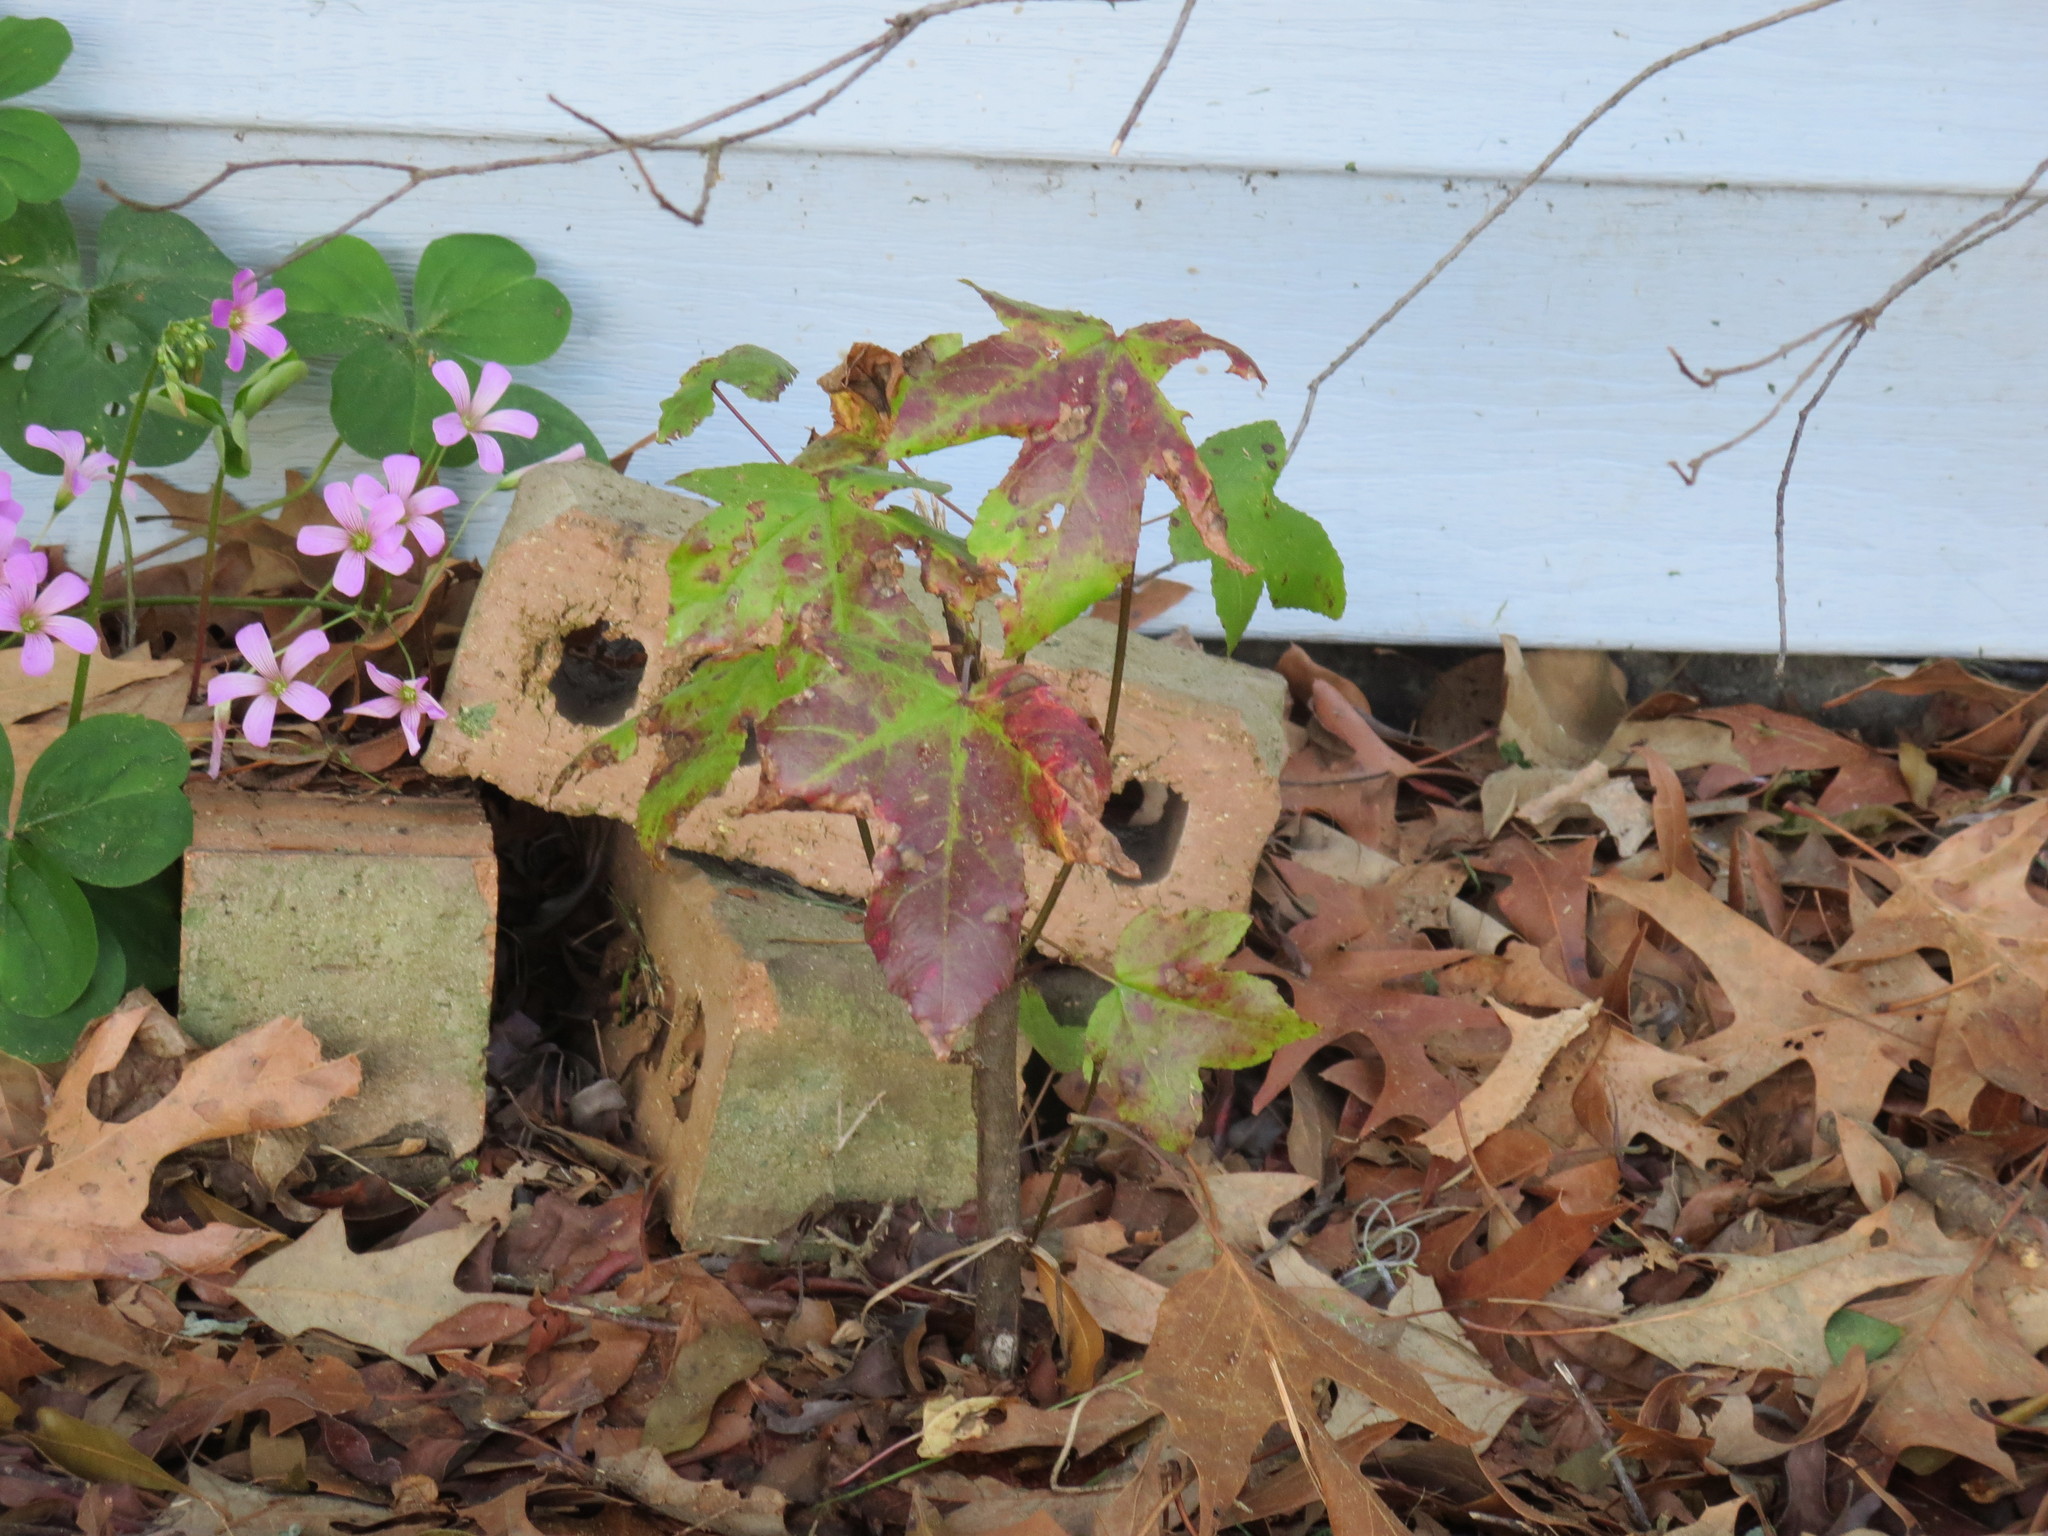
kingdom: Plantae
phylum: Tracheophyta
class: Magnoliopsida
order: Saxifragales
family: Altingiaceae
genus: Liquidambar
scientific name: Liquidambar styraciflua
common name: Sweet gum
